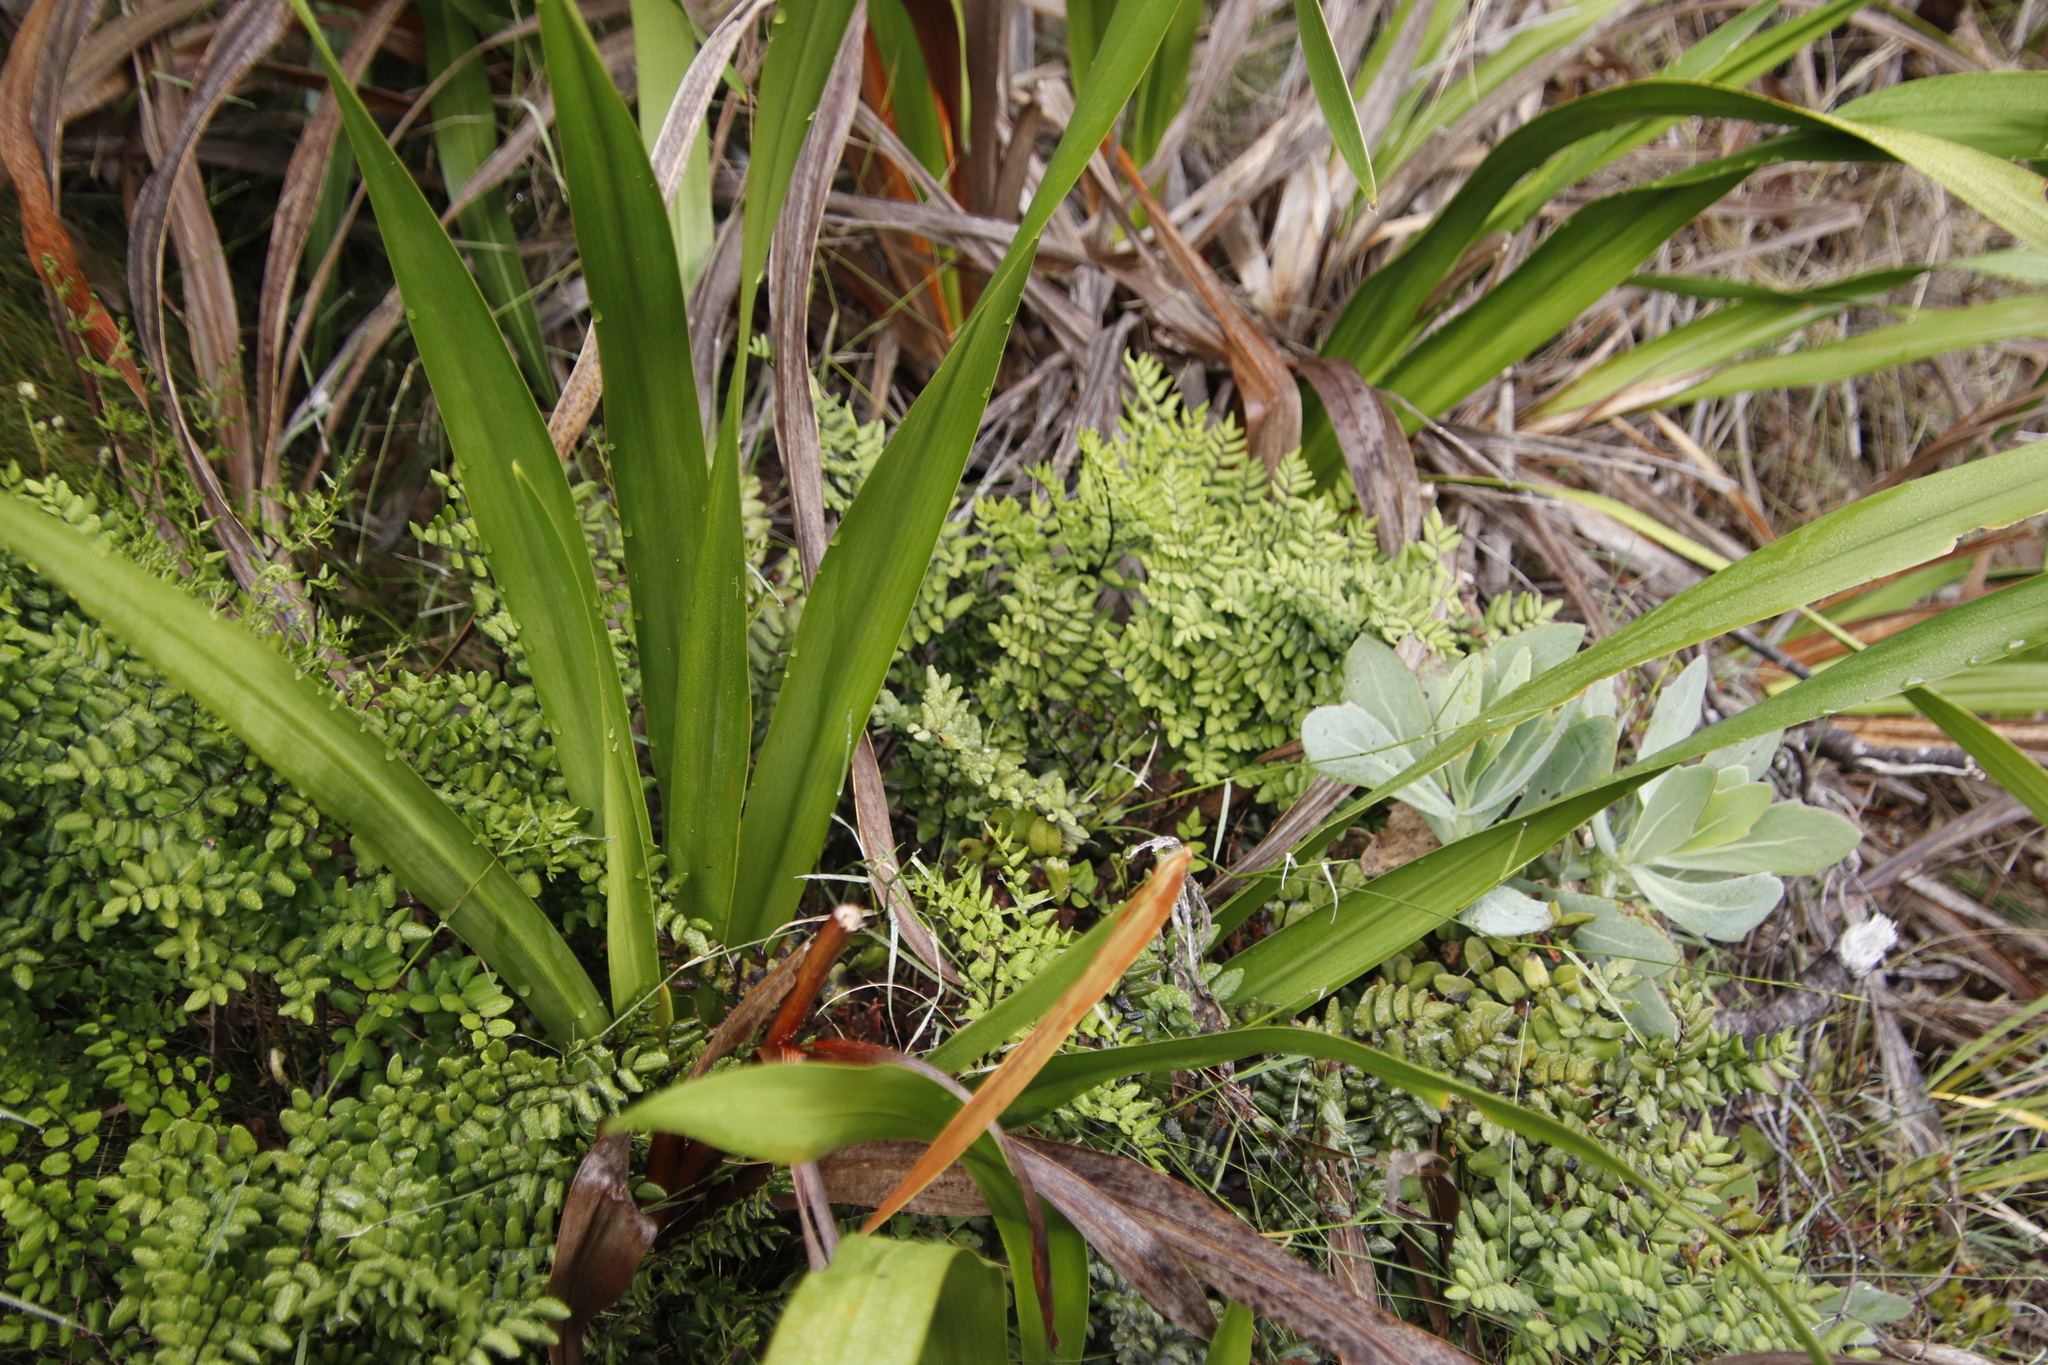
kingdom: Plantae
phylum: Tracheophyta
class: Polypodiopsida
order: Polypodiales
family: Pteridaceae
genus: Pellaea
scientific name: Pellaea pteroides
